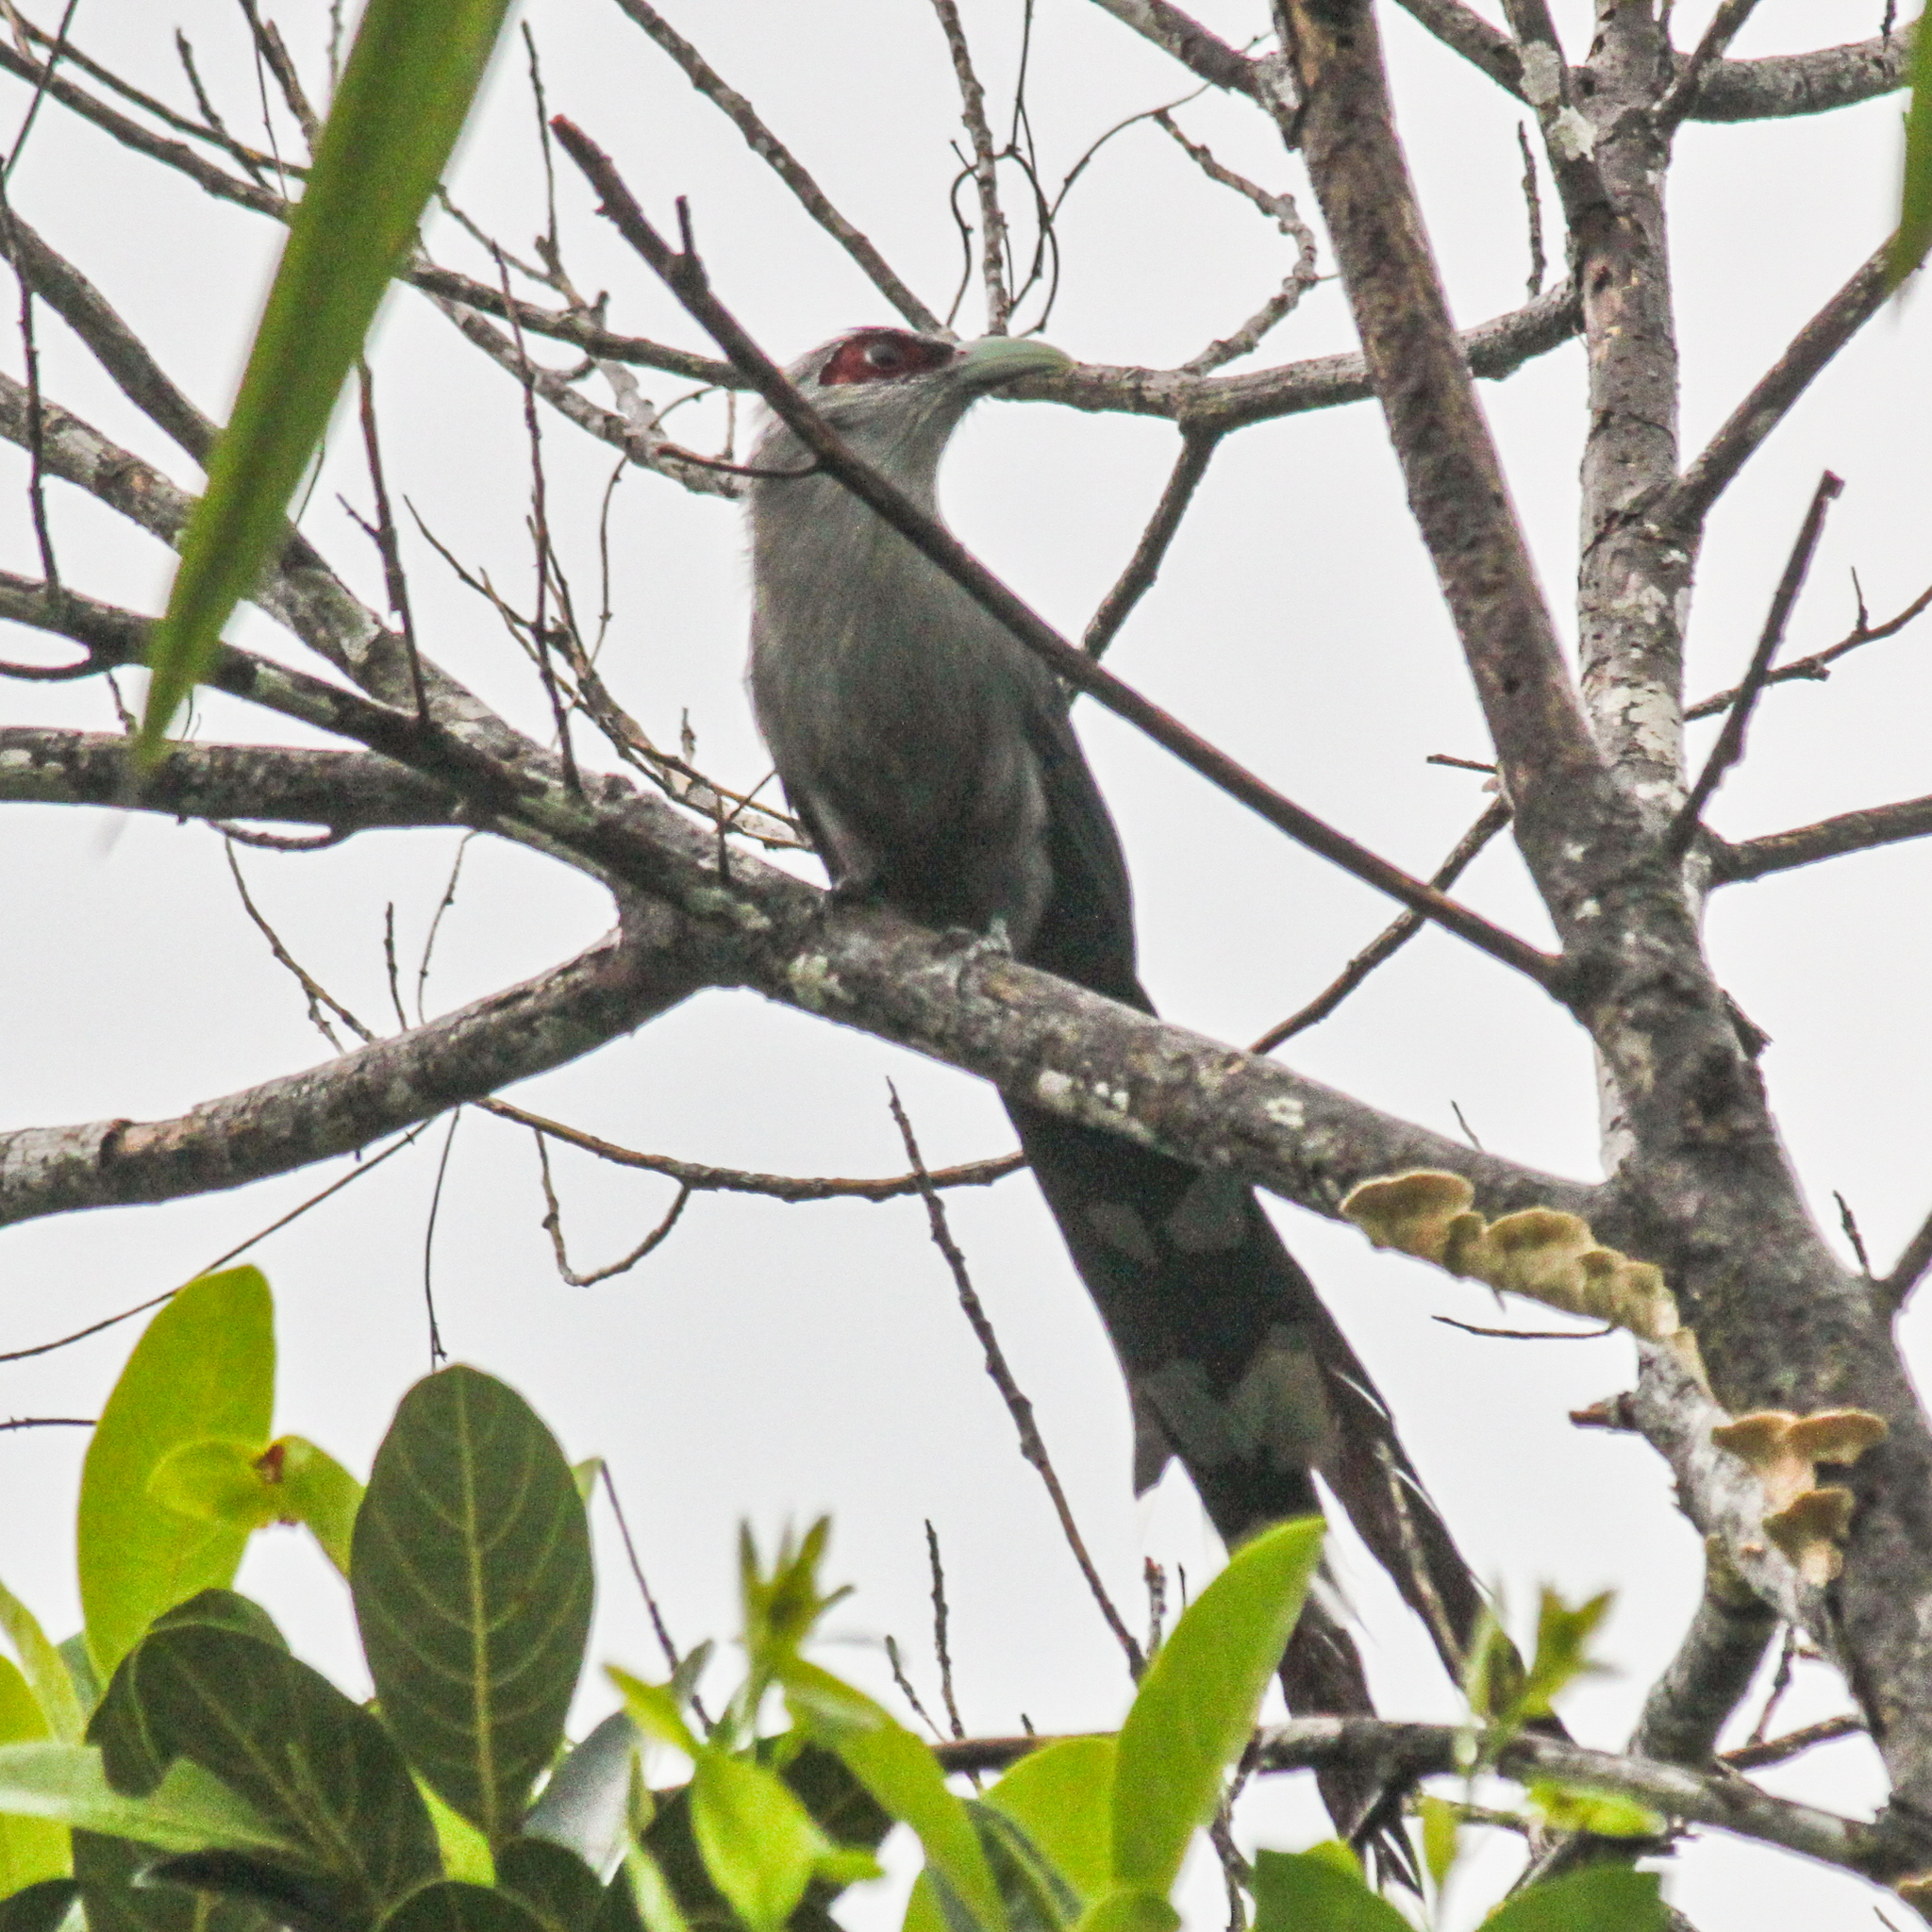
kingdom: Animalia
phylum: Chordata
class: Aves
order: Cuculiformes
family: Cuculidae
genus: Rhopodytes
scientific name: Rhopodytes tristis
